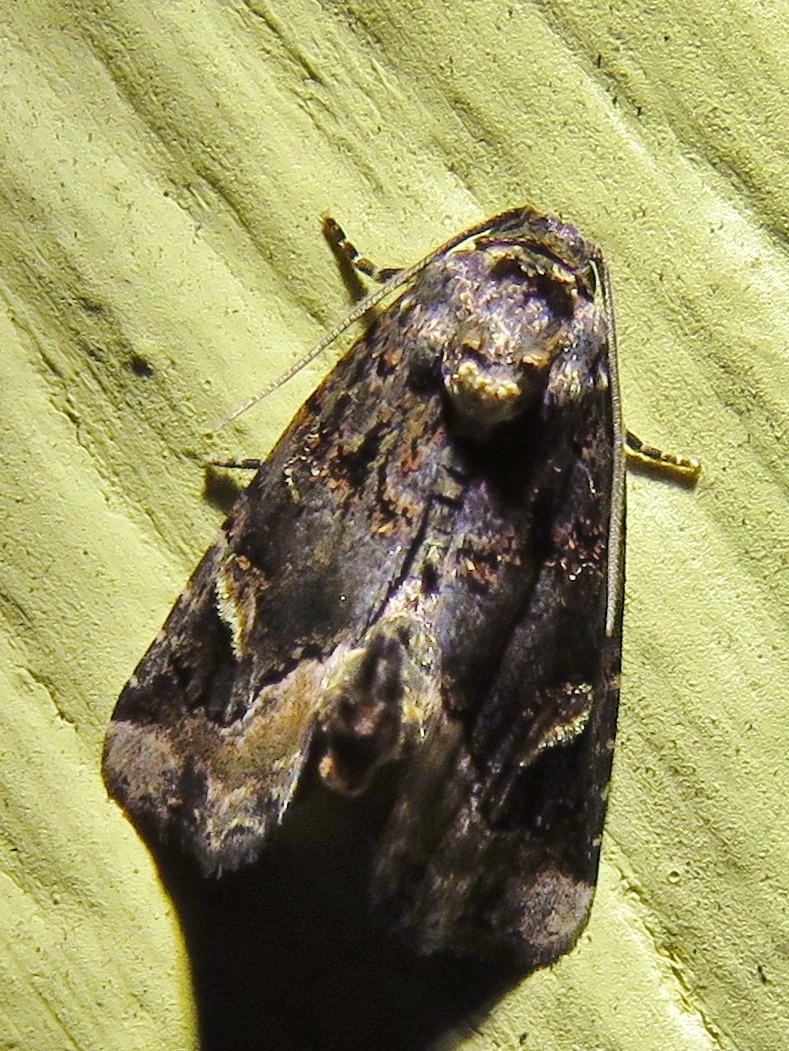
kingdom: Animalia
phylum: Arthropoda
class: Insecta
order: Lepidoptera
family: Noctuidae
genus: Homophoberia
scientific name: Homophoberia apicosa
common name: Black wedge-spot
